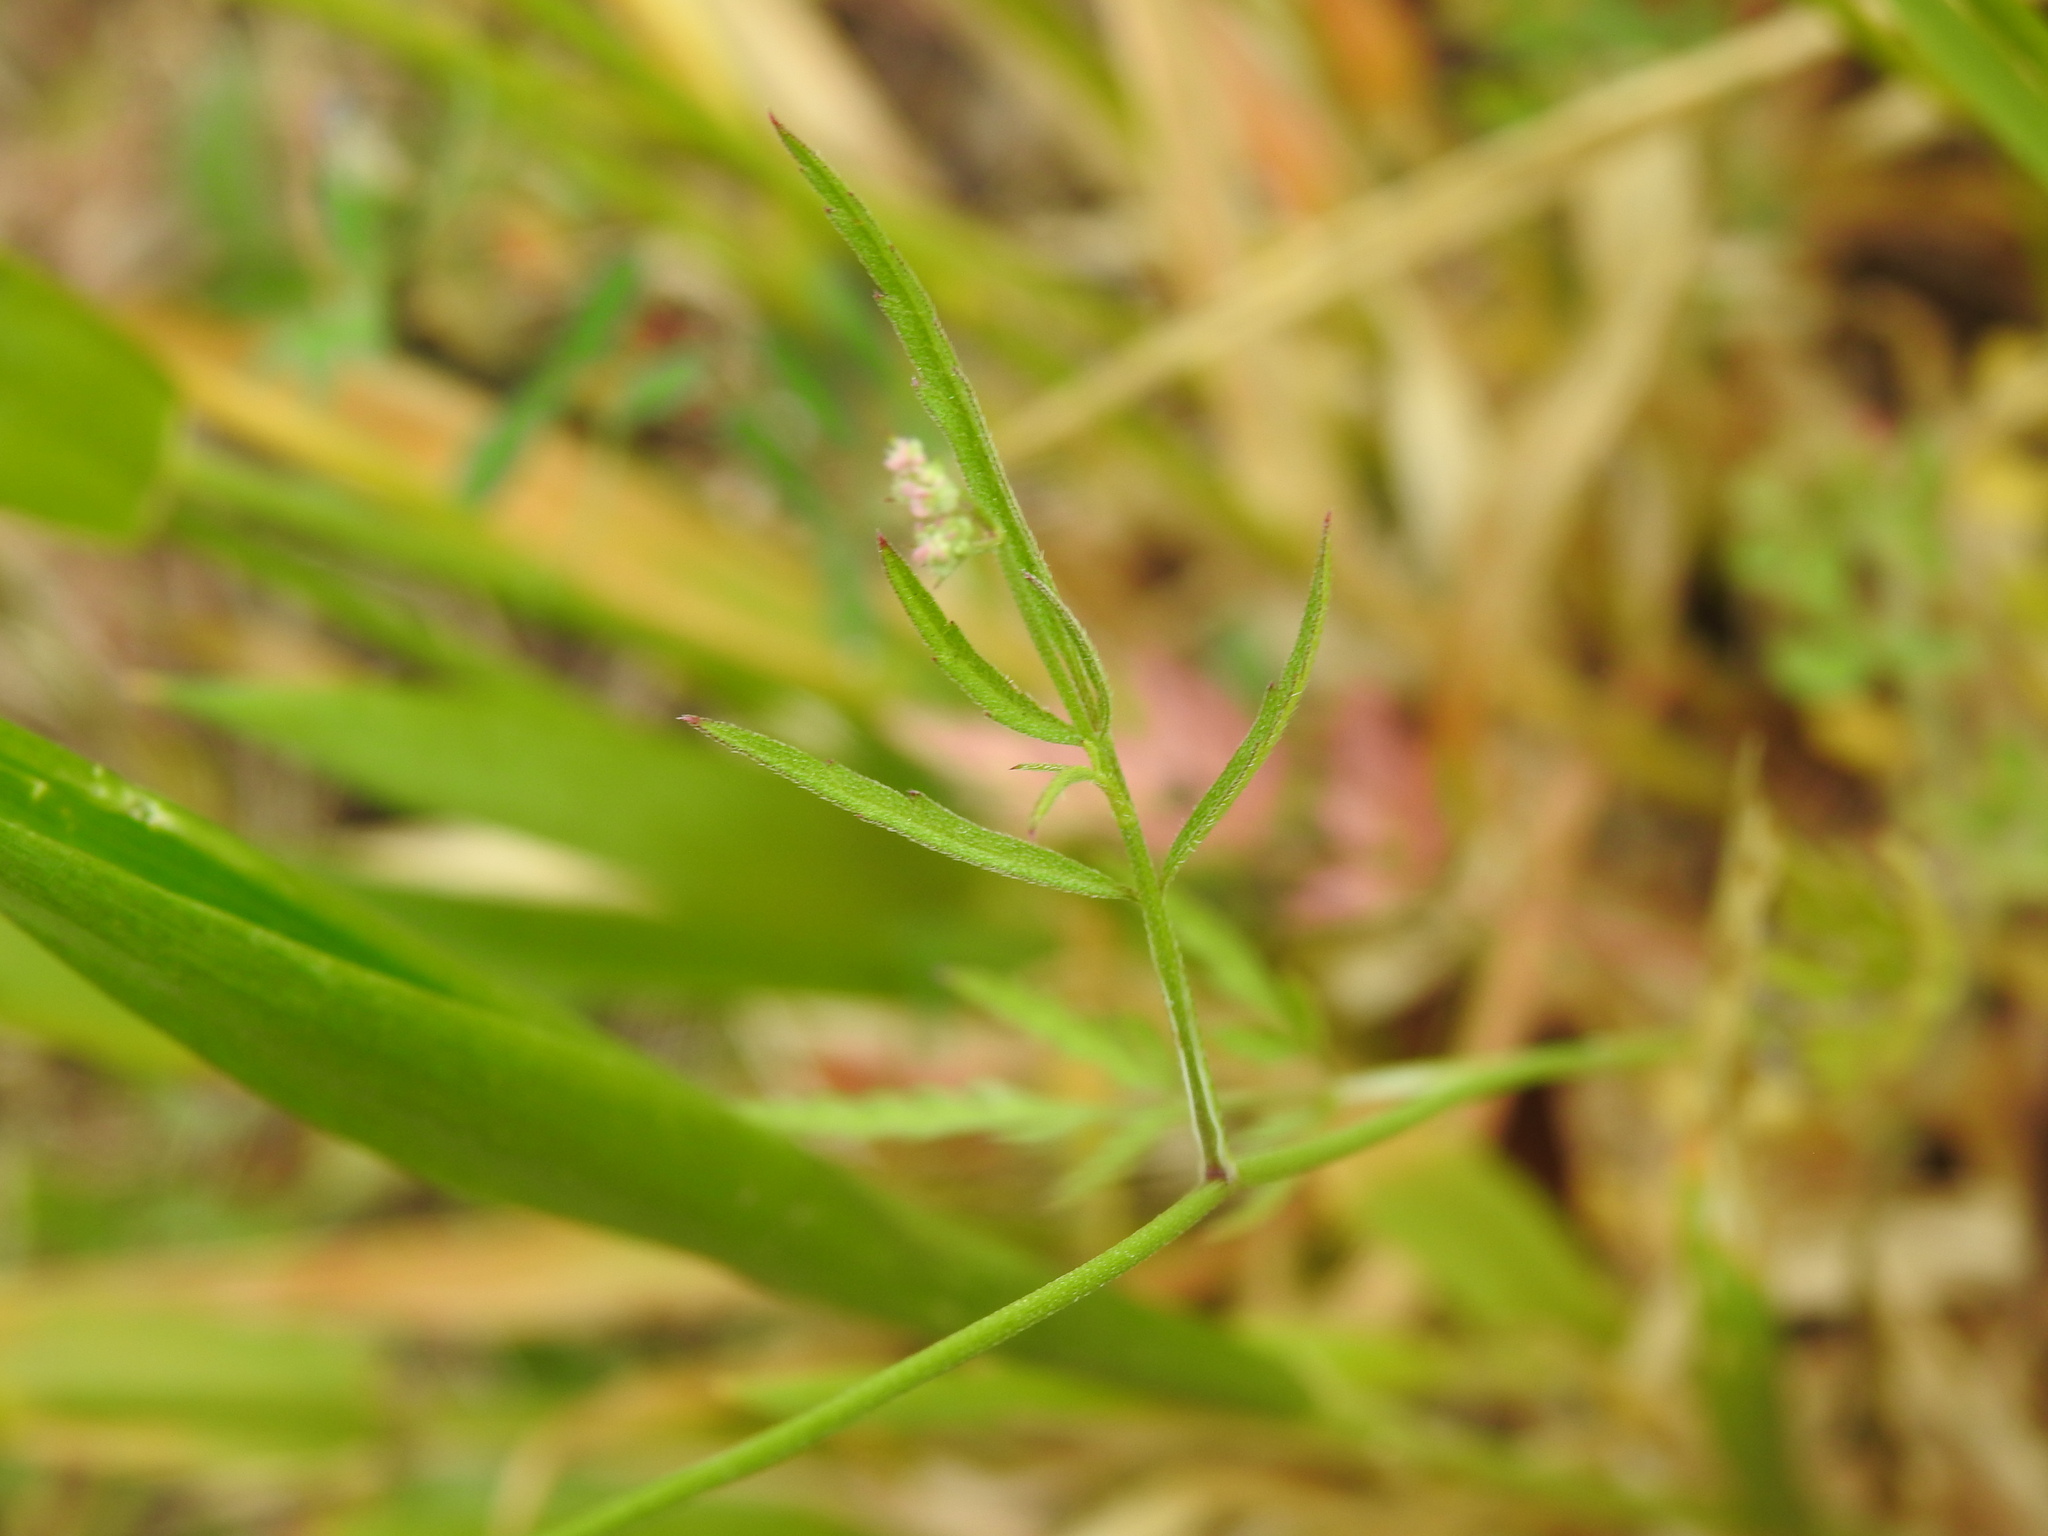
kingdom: Plantae
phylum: Tracheophyta
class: Magnoliopsida
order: Apiales
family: Apiaceae
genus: Torilis
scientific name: Torilis arvensis
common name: Spreading hedge-parsley
